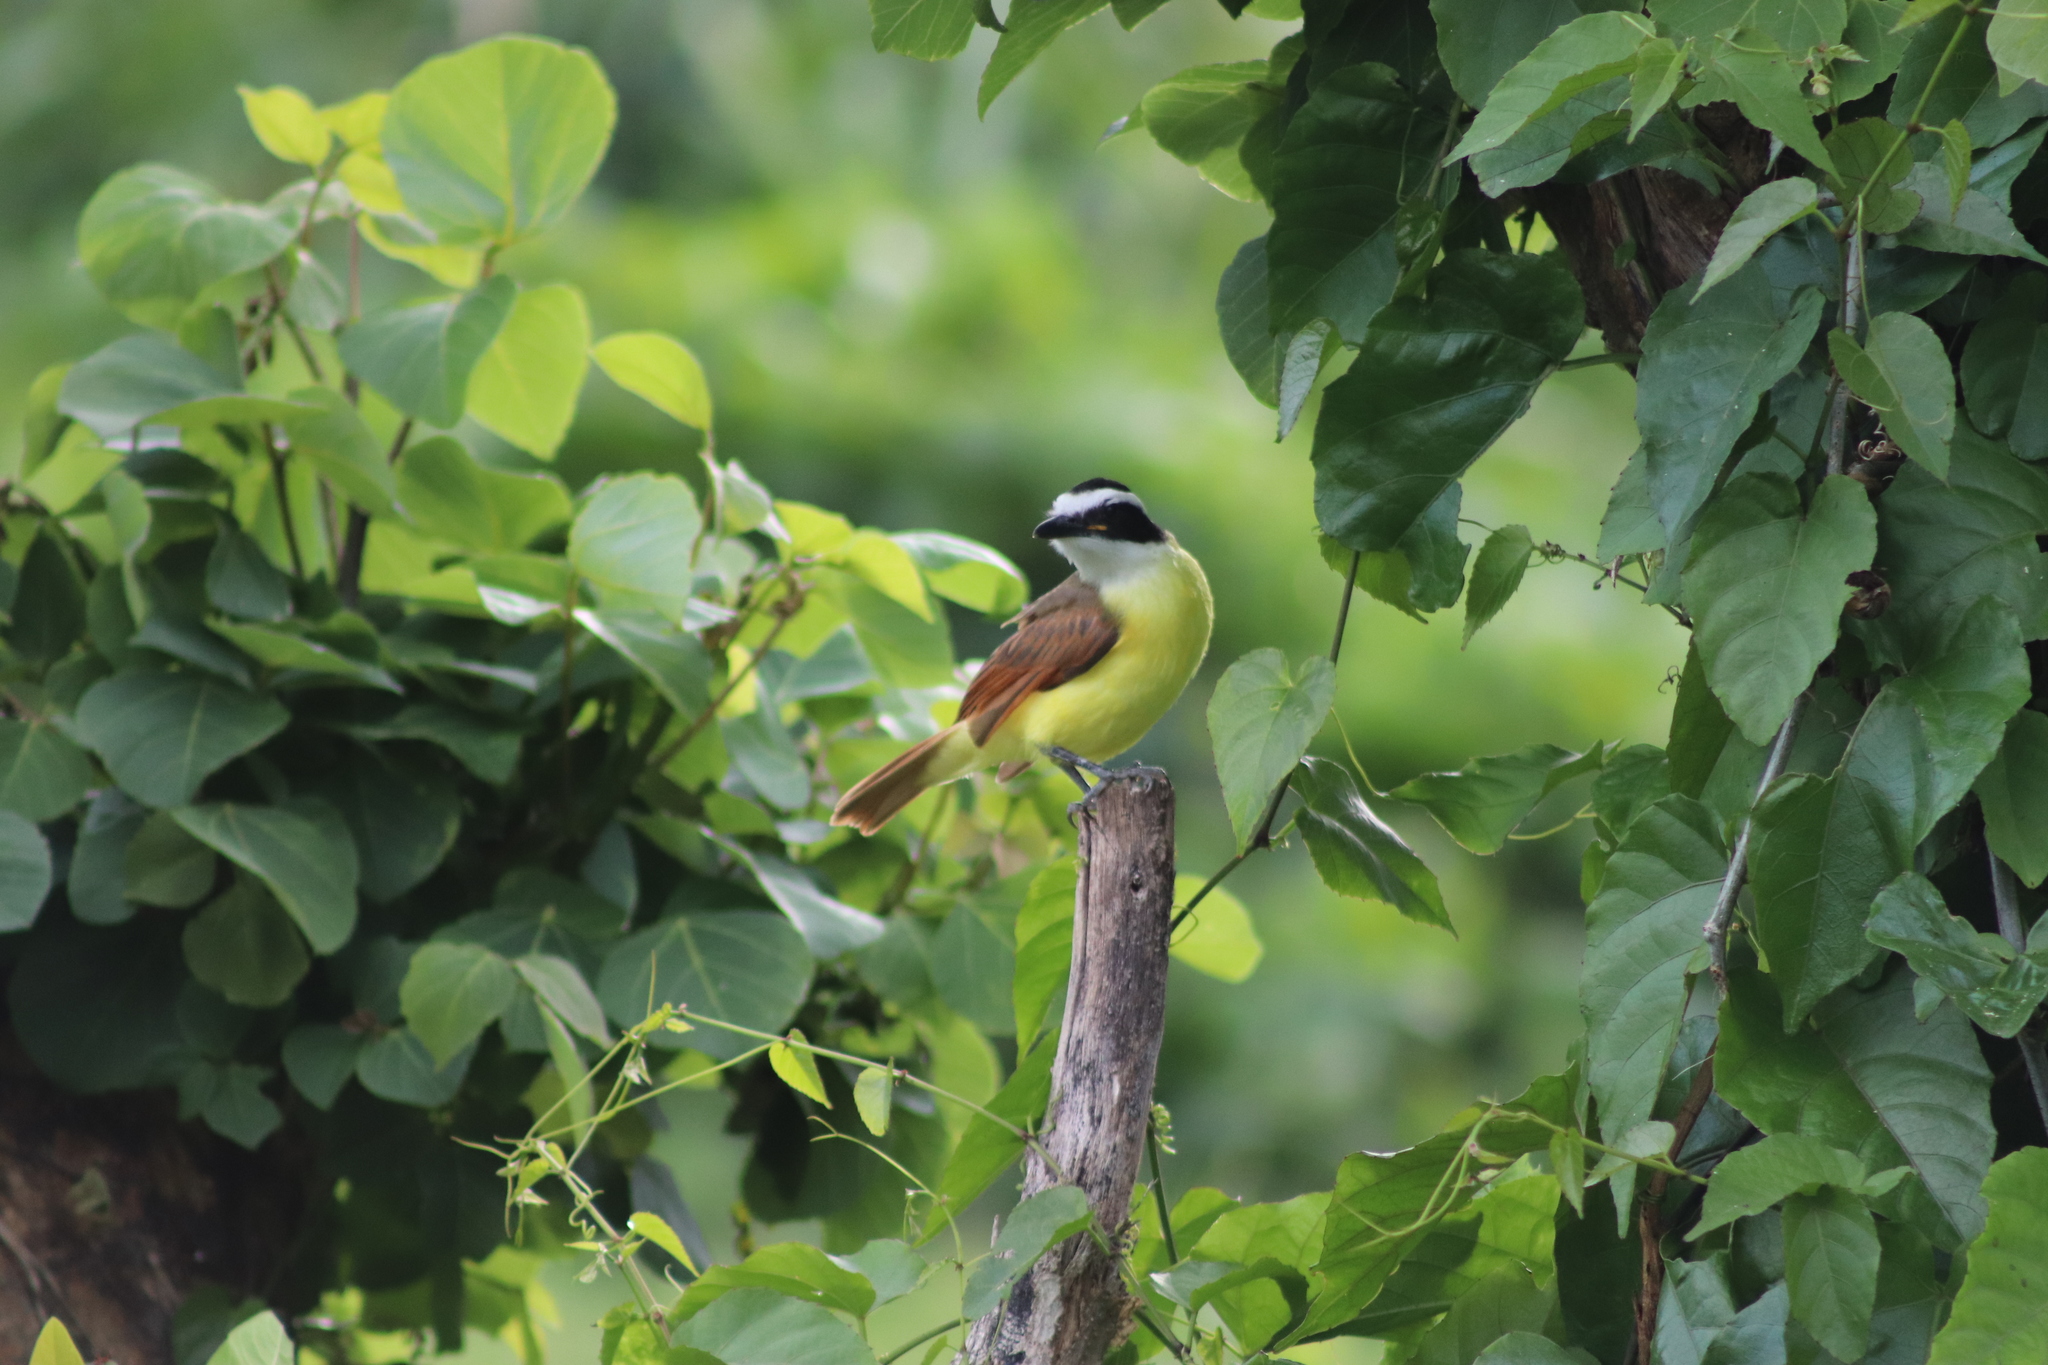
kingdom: Animalia
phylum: Chordata
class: Aves
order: Passeriformes
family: Tyrannidae
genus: Pitangus
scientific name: Pitangus sulphuratus
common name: Great kiskadee
